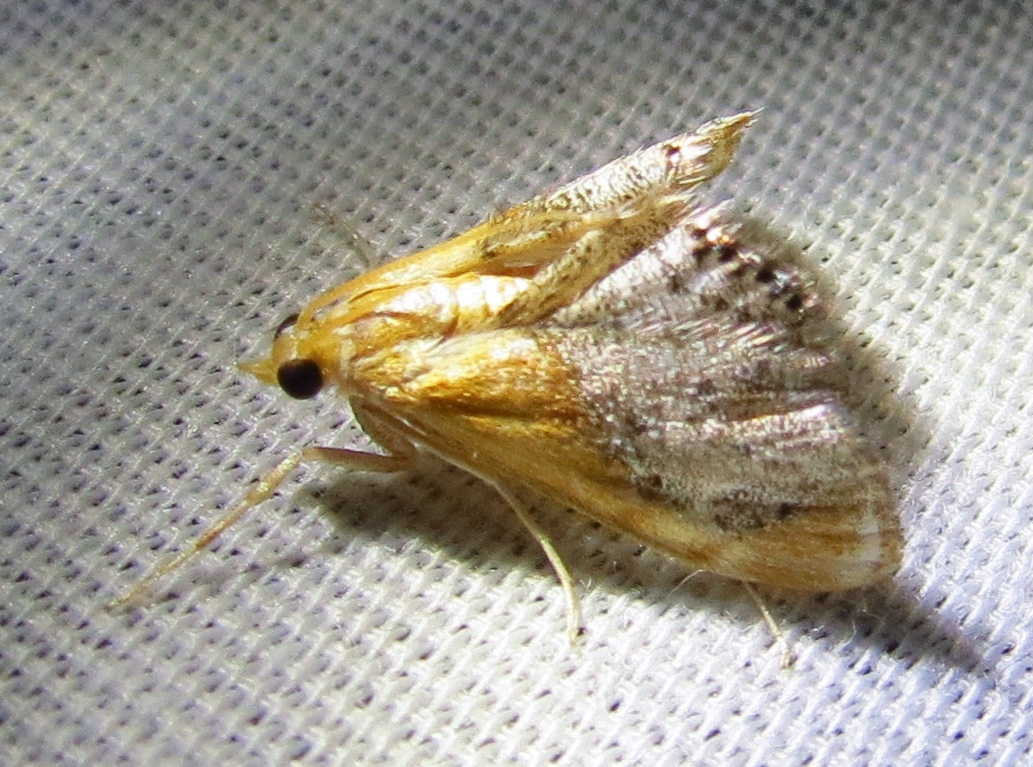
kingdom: Animalia
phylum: Arthropoda
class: Insecta
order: Lepidoptera
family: Crambidae
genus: Chalcoela
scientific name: Chalcoela iphitalis
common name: Sooty-winged chalcoela moth
